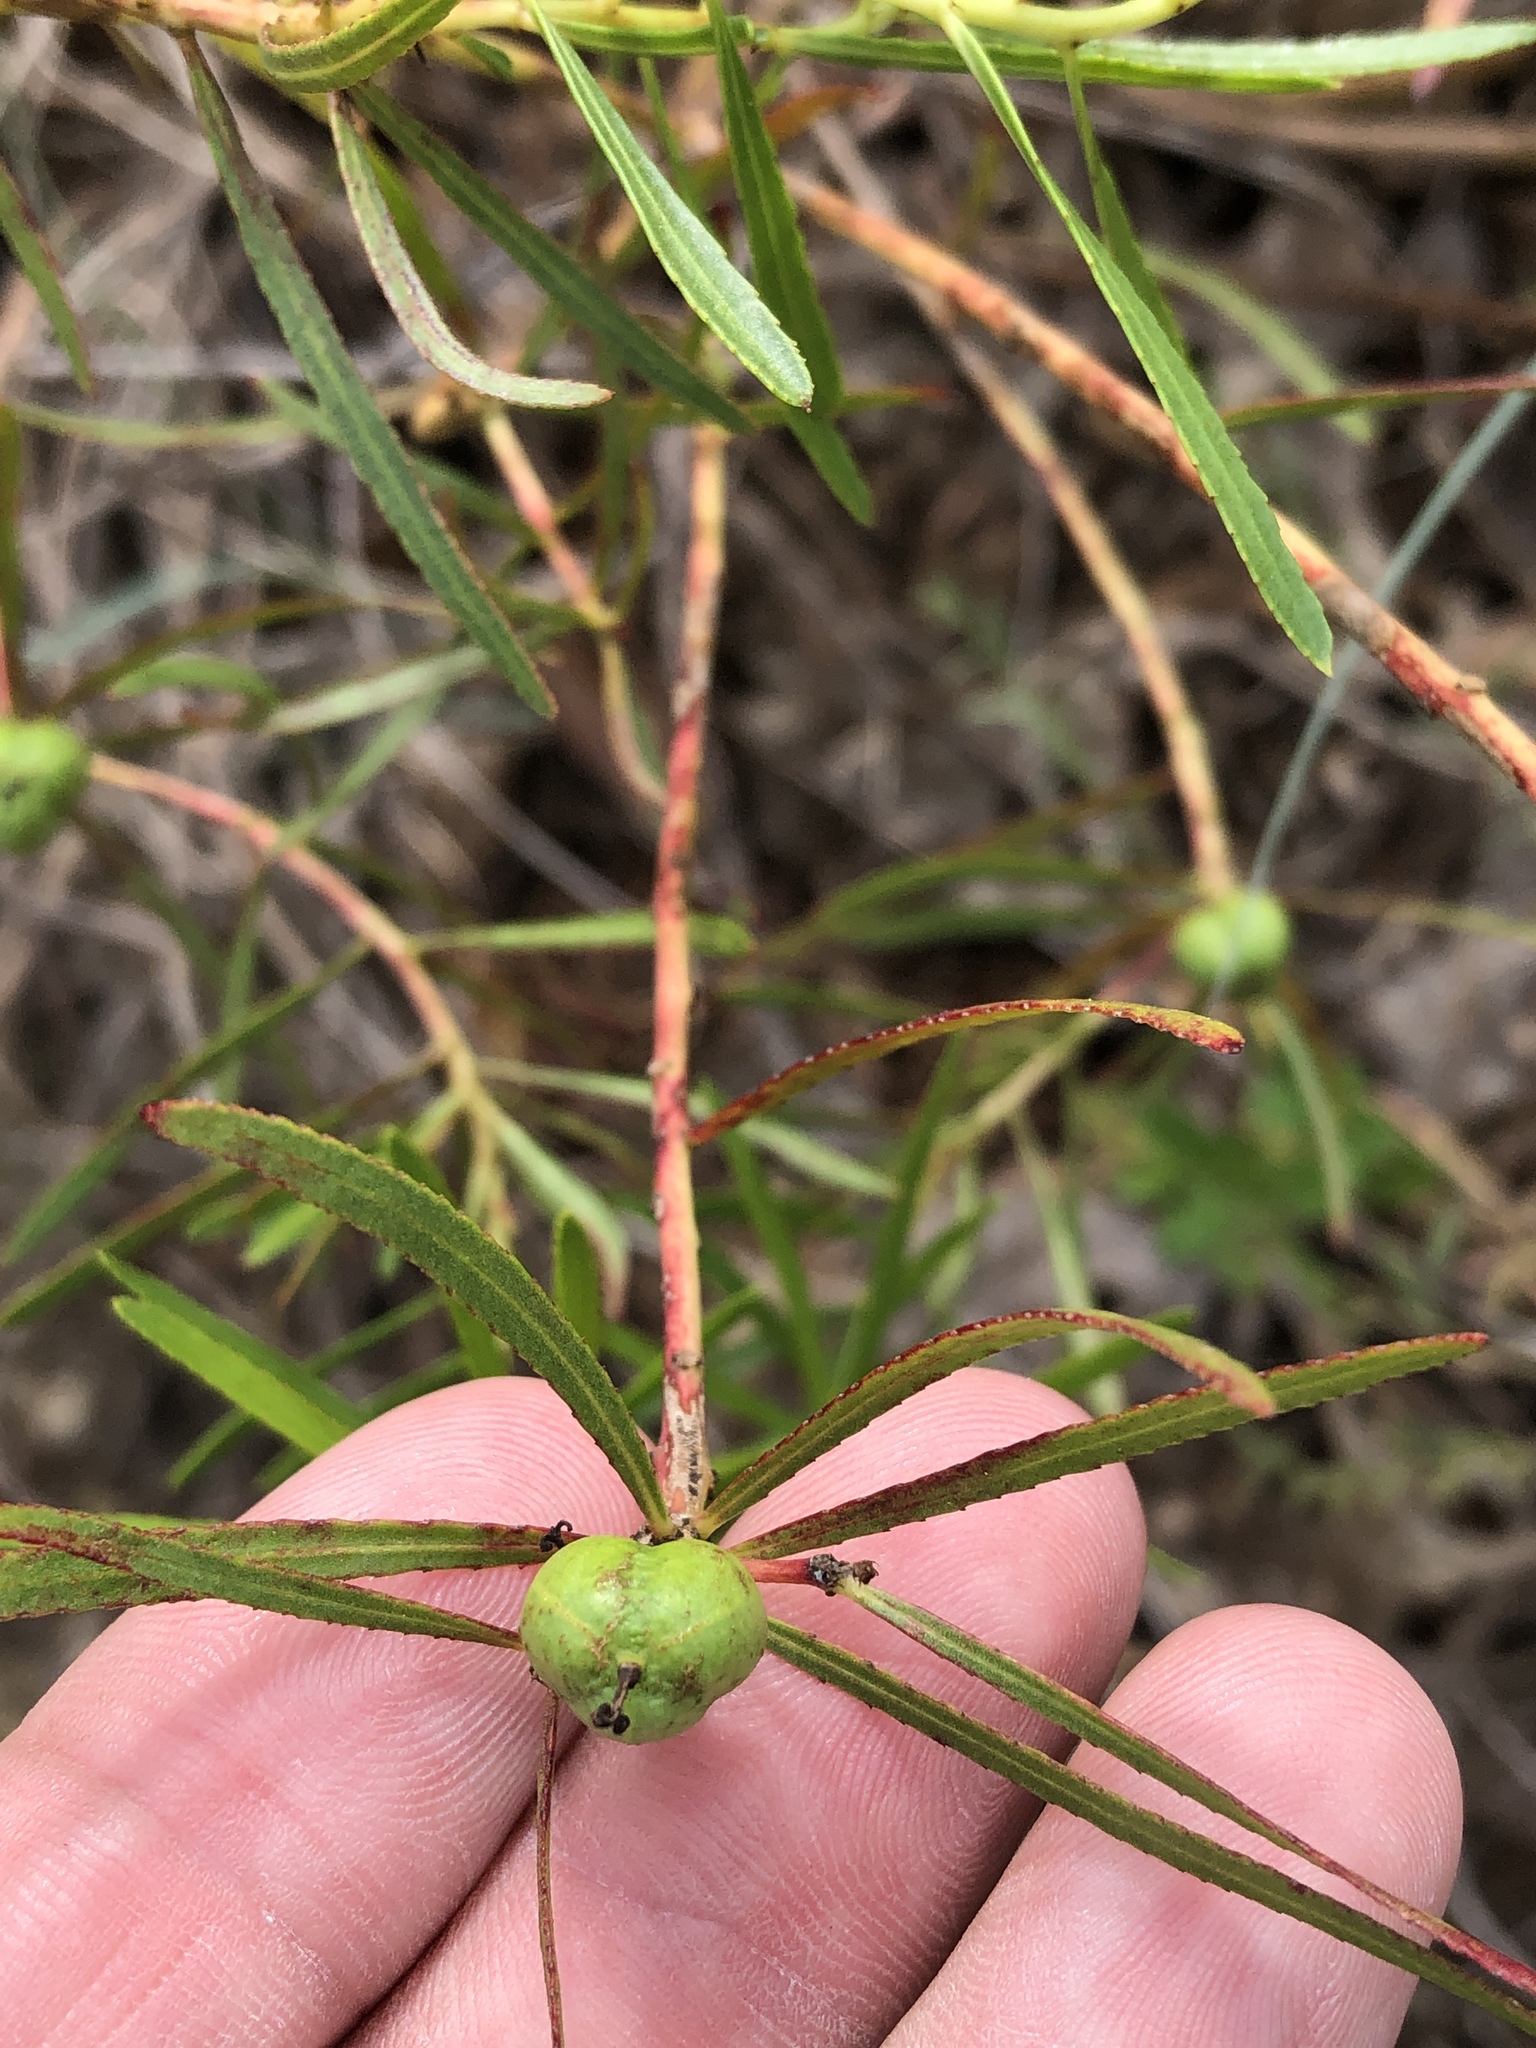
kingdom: Plantae
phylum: Tracheophyta
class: Magnoliopsida
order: Malpighiales
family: Euphorbiaceae
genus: Stillingia
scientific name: Stillingia texana
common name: Texas stillingia
